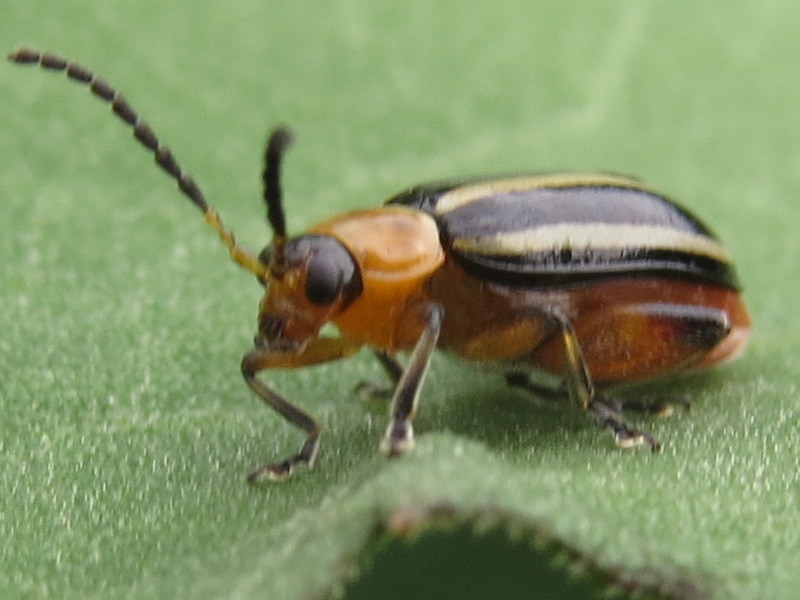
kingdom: Animalia
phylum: Arthropoda
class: Insecta
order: Coleoptera
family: Chrysomelidae
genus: Disonycha
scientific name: Disonycha glabrata
